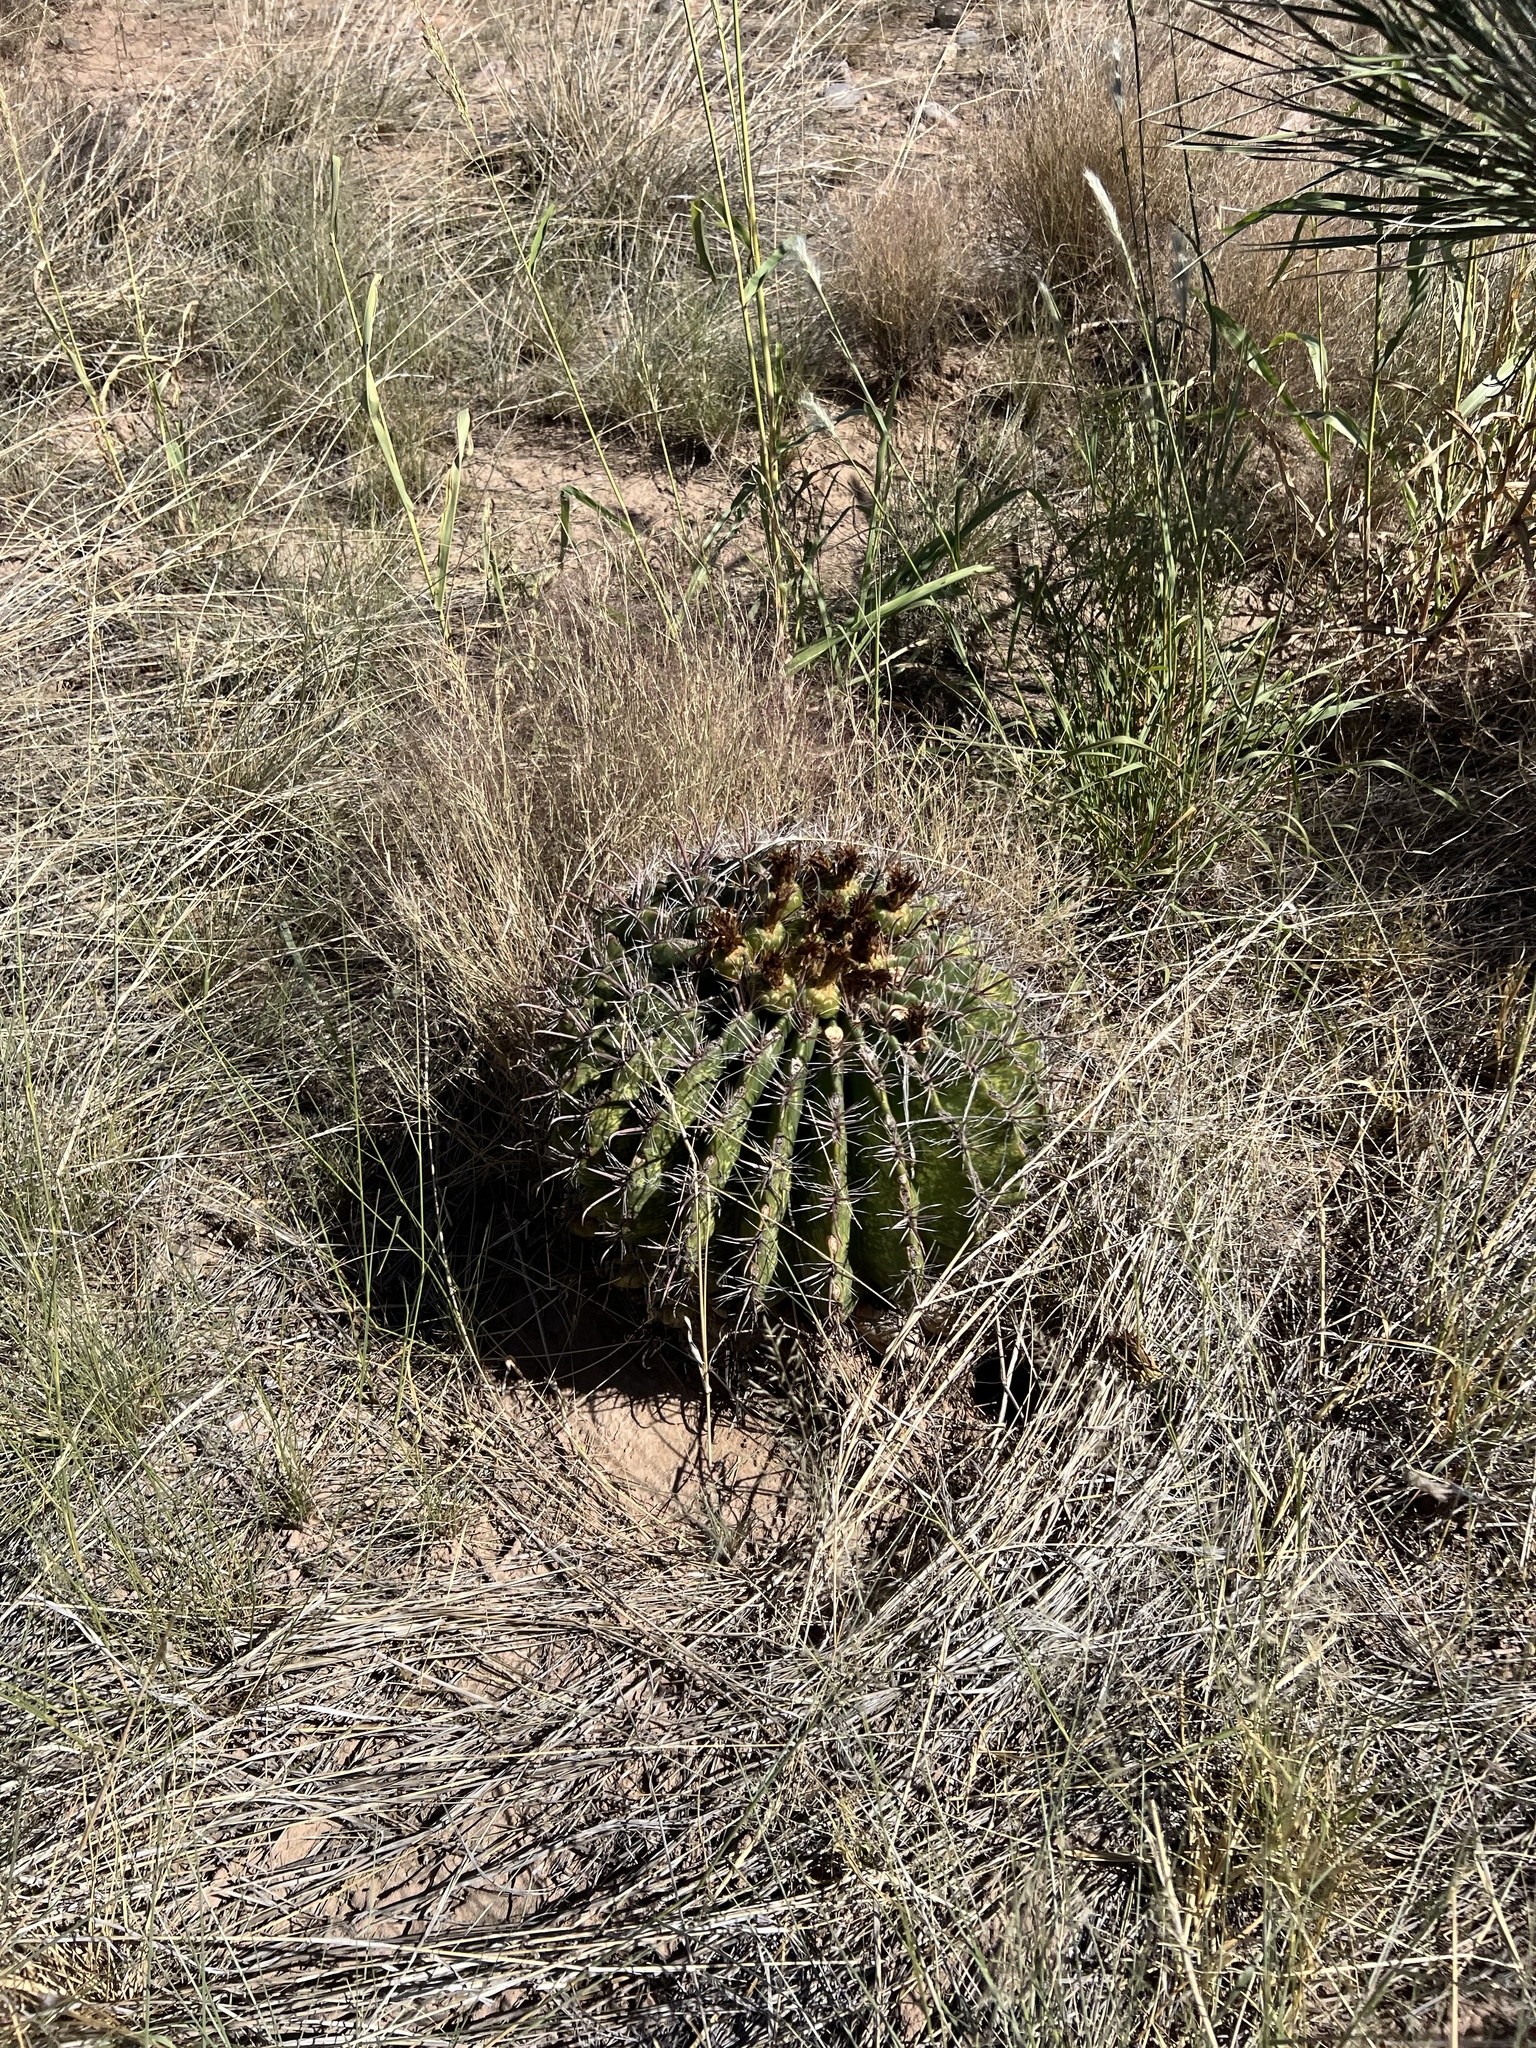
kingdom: Plantae
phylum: Tracheophyta
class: Magnoliopsida
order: Caryophyllales
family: Cactaceae
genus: Ferocactus
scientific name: Ferocactus wislizeni
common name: Candy barrel cactus
